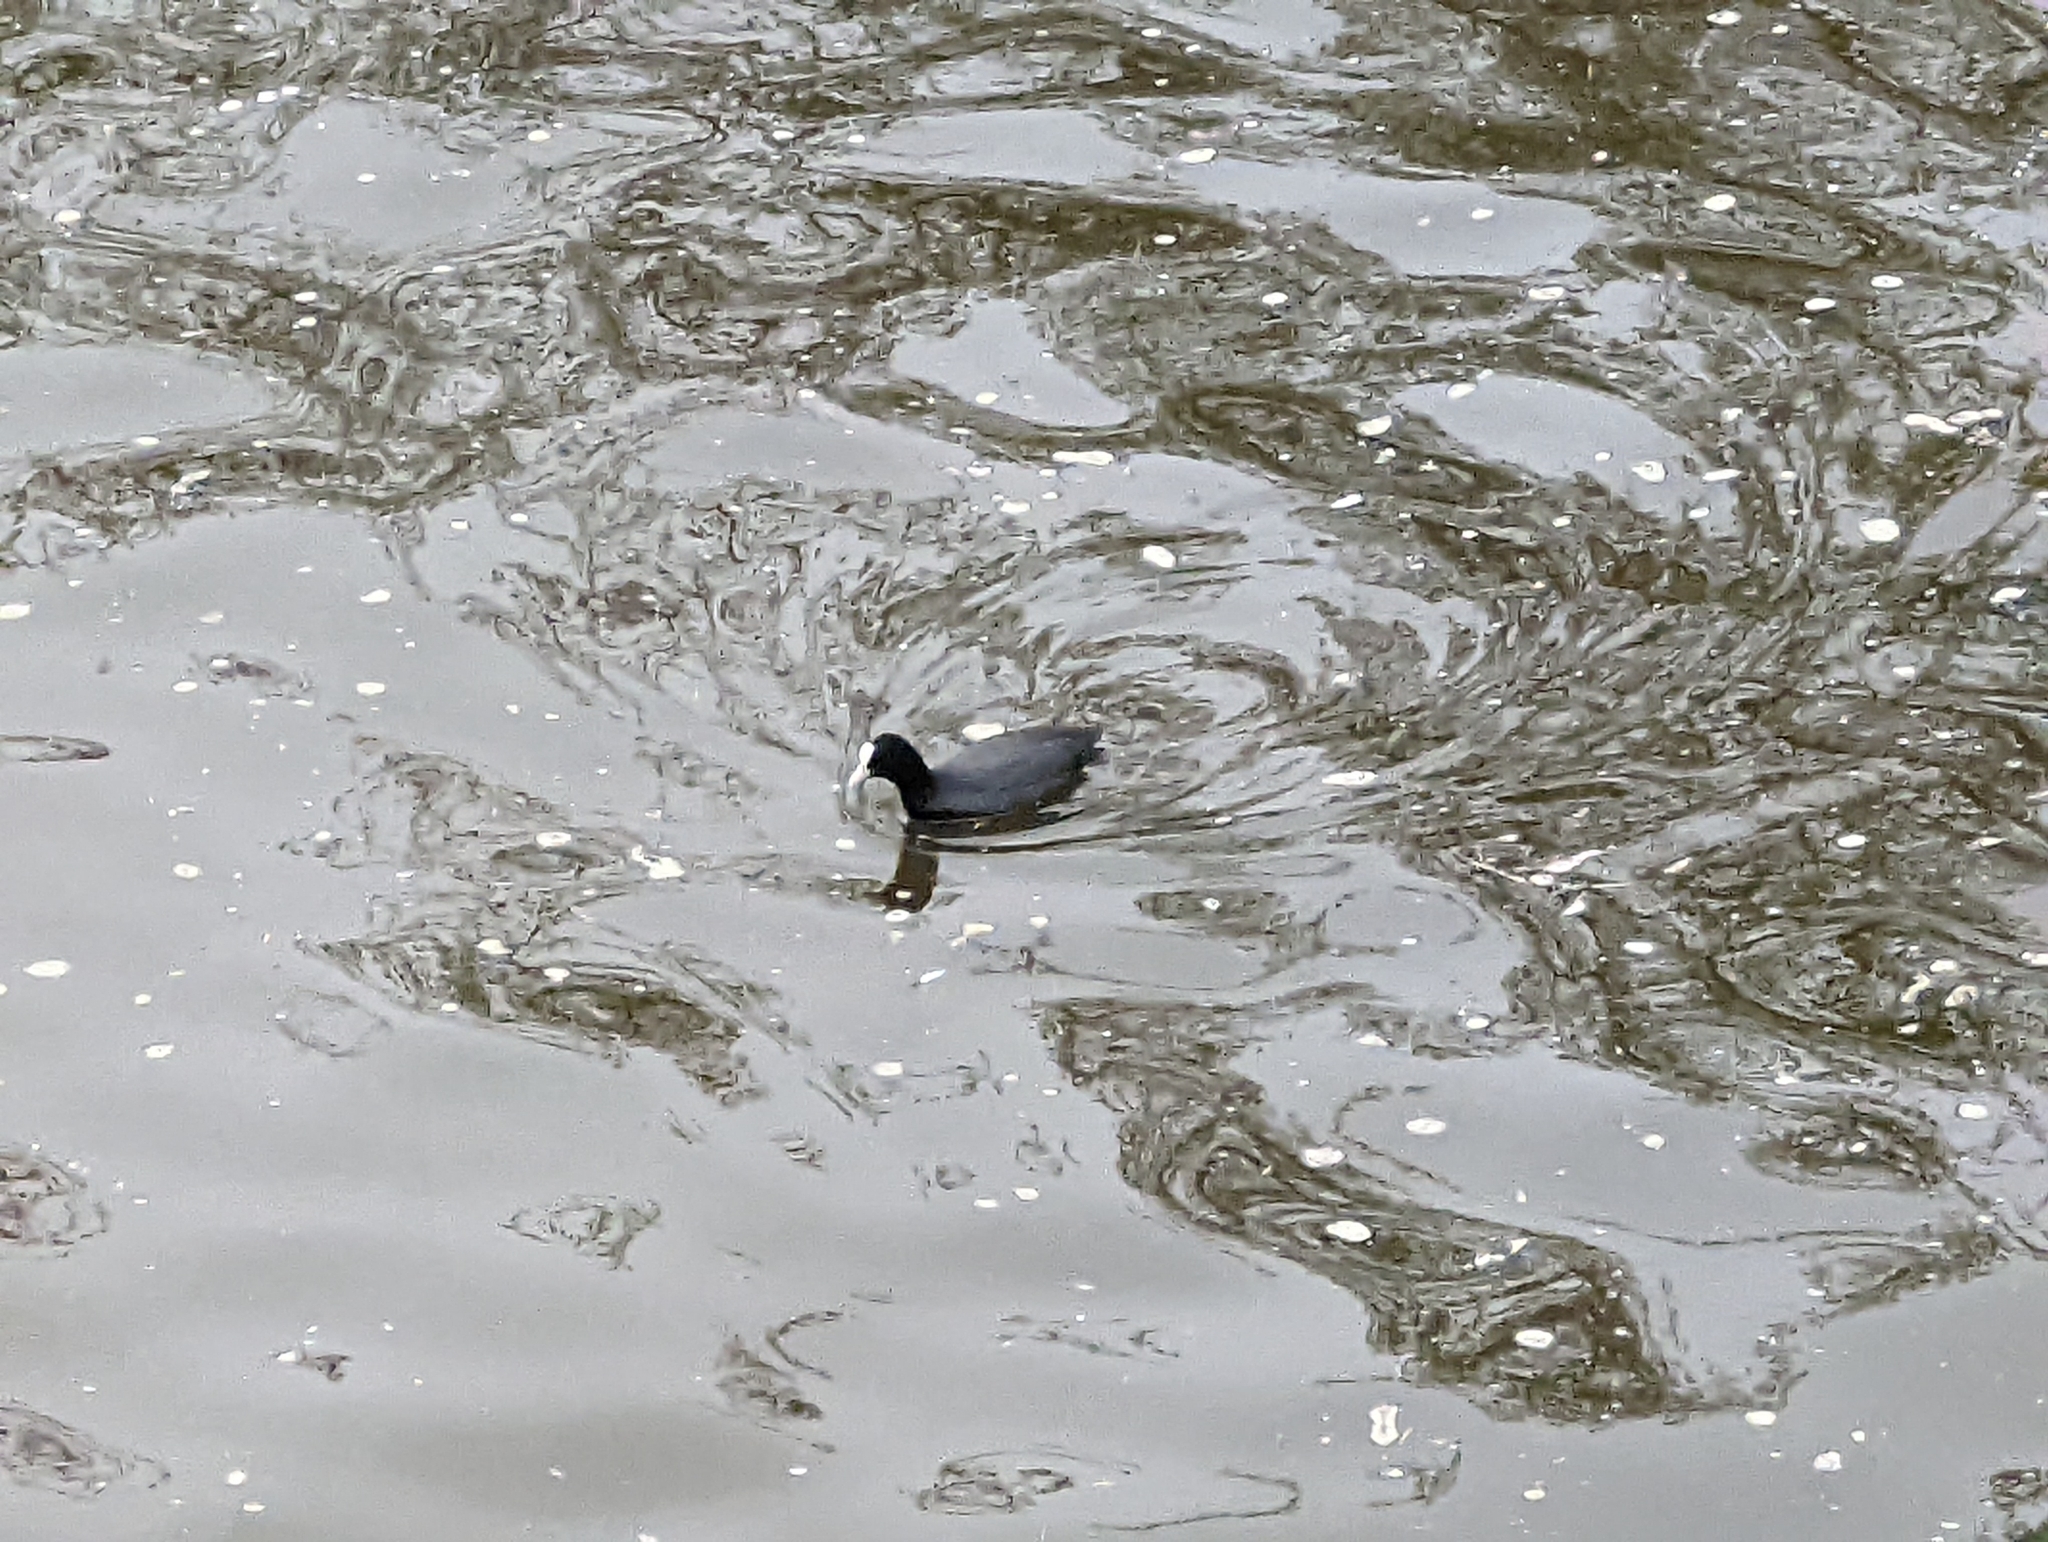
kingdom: Animalia
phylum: Chordata
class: Aves
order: Gruiformes
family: Rallidae
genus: Fulica
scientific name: Fulica atra
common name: Eurasian coot
